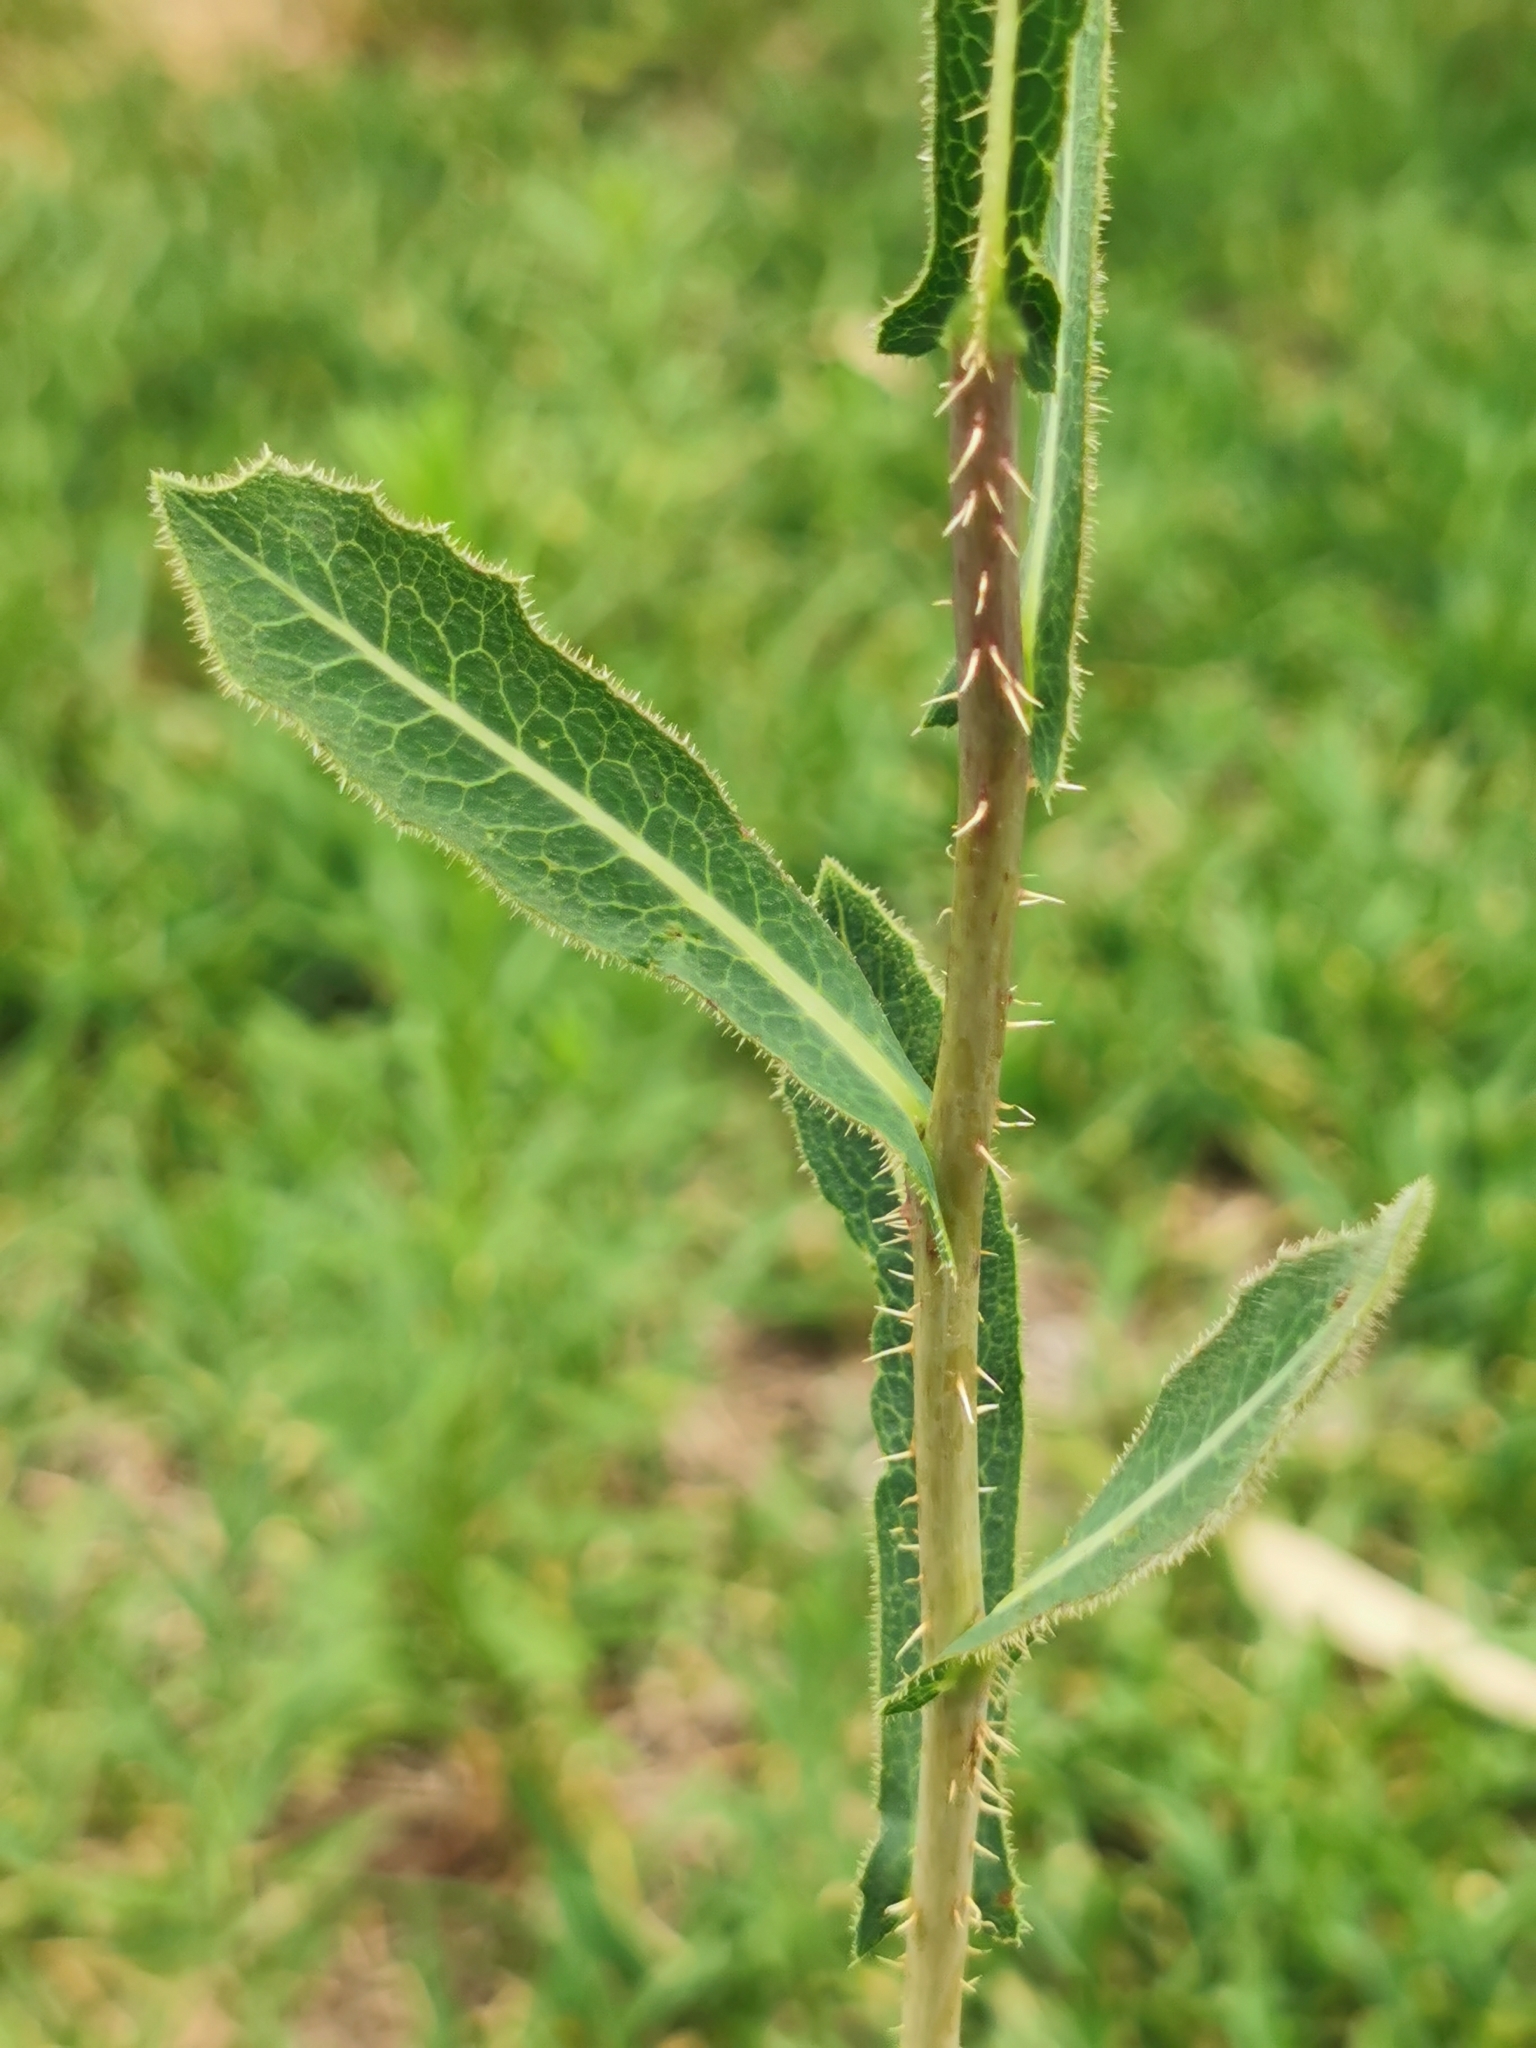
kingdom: Plantae
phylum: Tracheophyta
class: Magnoliopsida
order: Asterales
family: Asteraceae
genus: Lactuca
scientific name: Lactuca serriola
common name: Prickly lettuce
